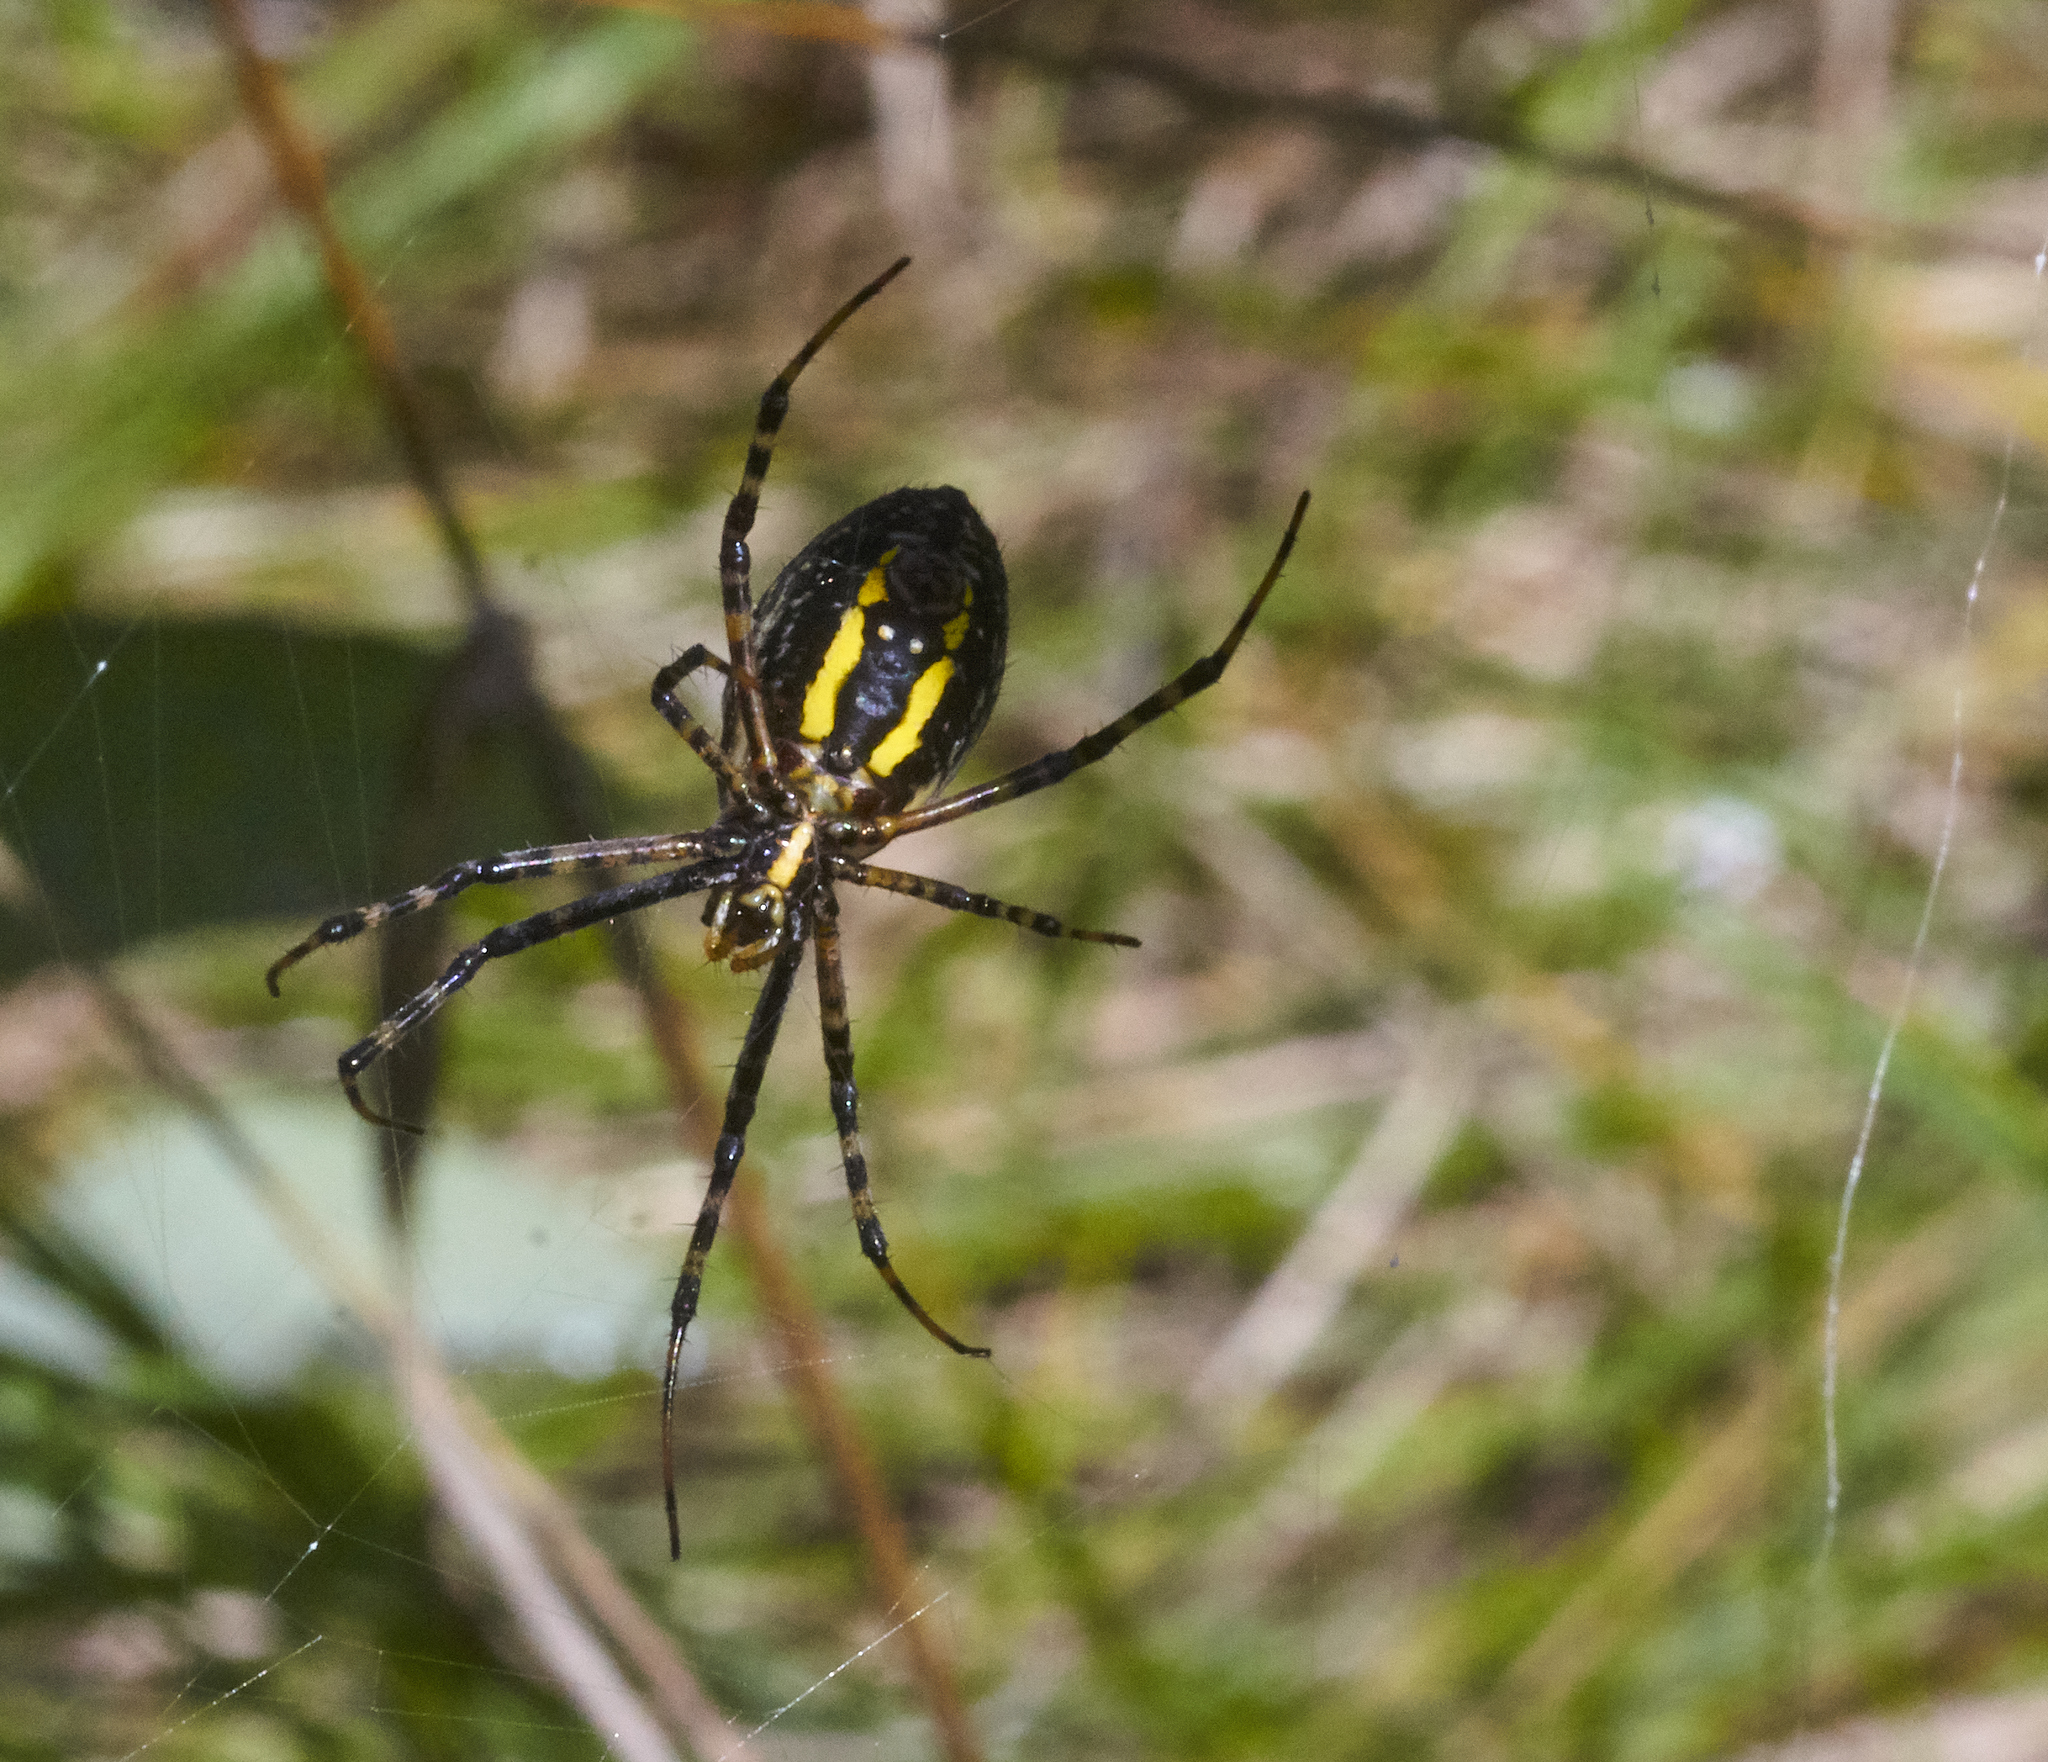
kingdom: Animalia
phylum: Arthropoda
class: Arachnida
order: Araneae
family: Araneidae
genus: Argiope
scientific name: Argiope trifasciata
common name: Banded garden spider
